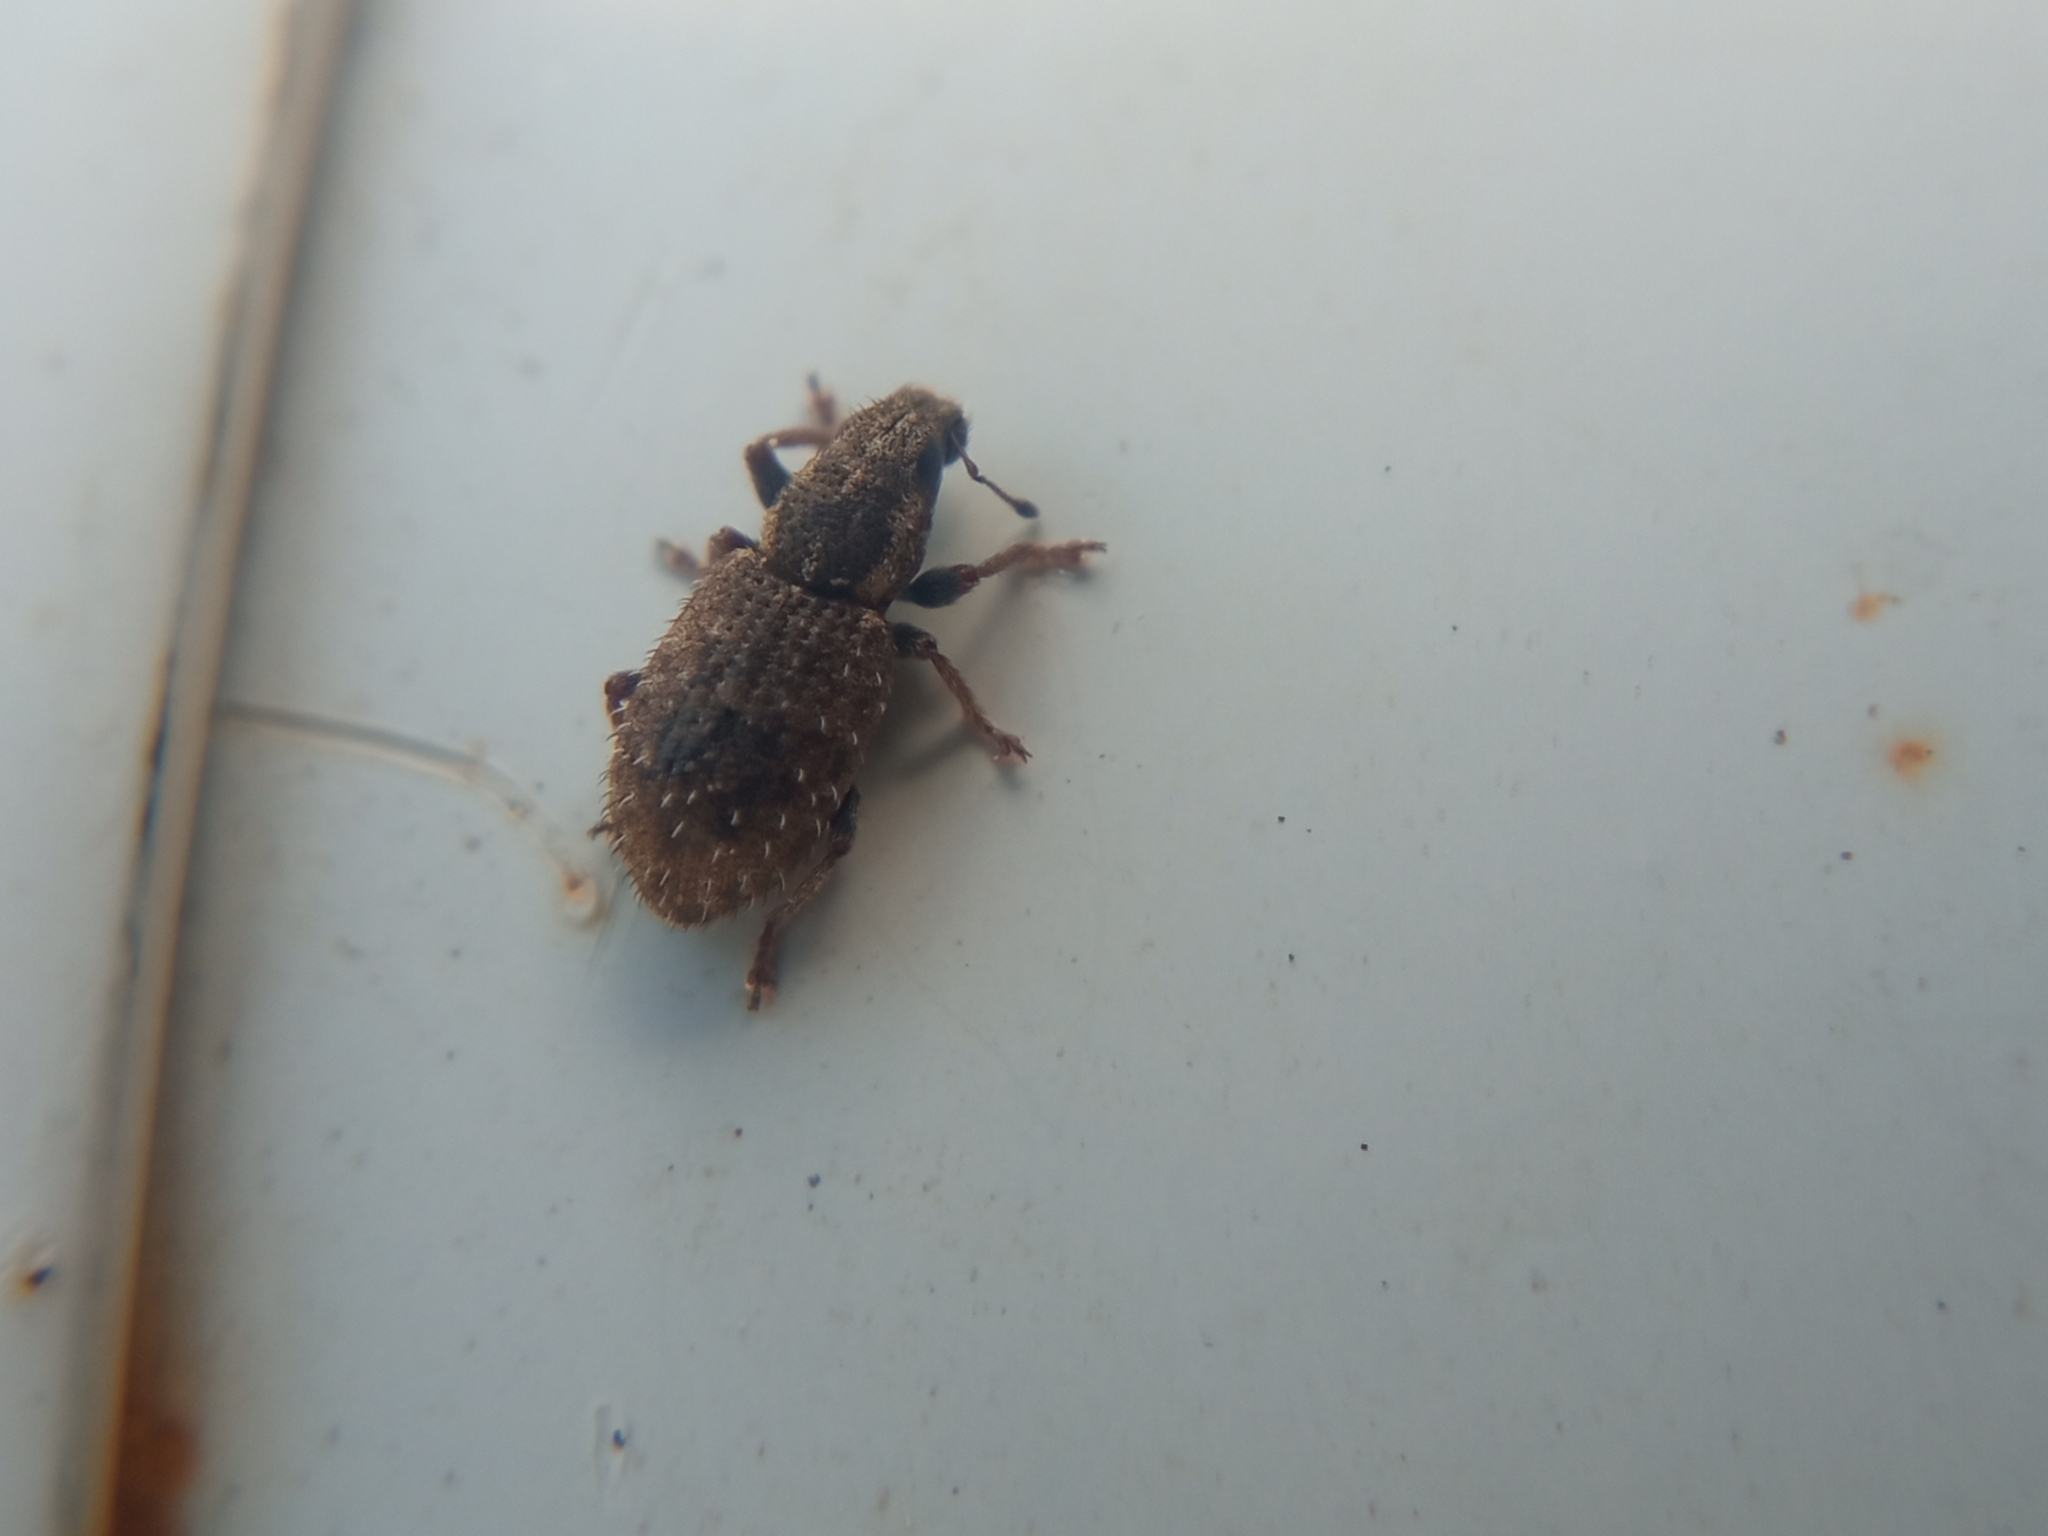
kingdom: Animalia
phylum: Arthropoda
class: Insecta
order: Coleoptera
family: Curculionidae
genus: Sitona
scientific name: Sitona hispidulus
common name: Clover weevil
